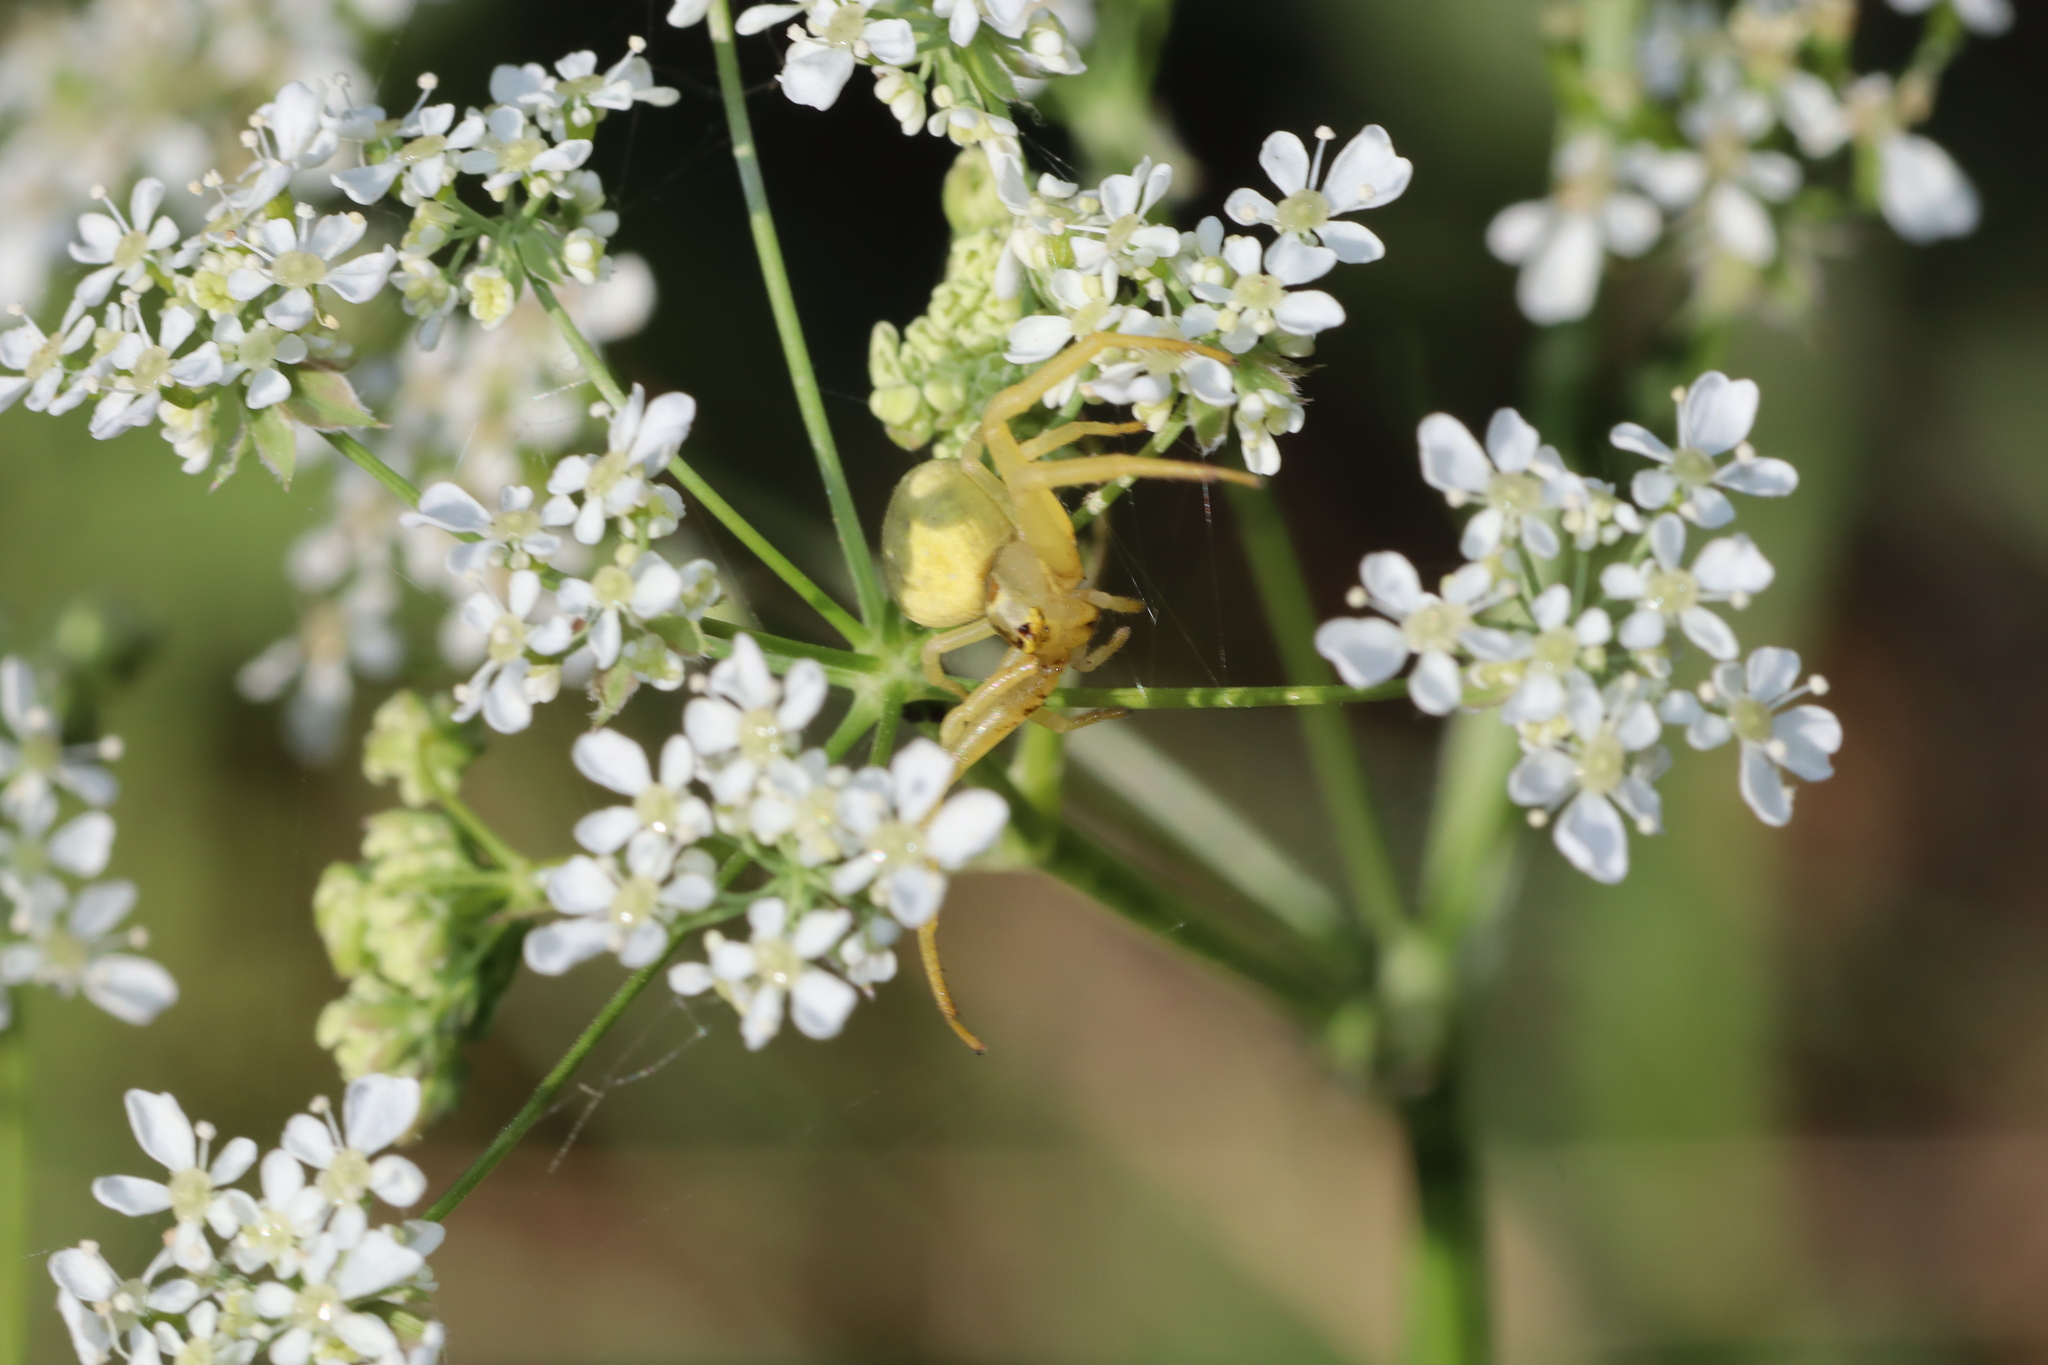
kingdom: Animalia
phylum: Arthropoda
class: Arachnida
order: Araneae
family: Thomisidae
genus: Misumena
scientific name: Misumena vatia
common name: Goldenrod crab spider
